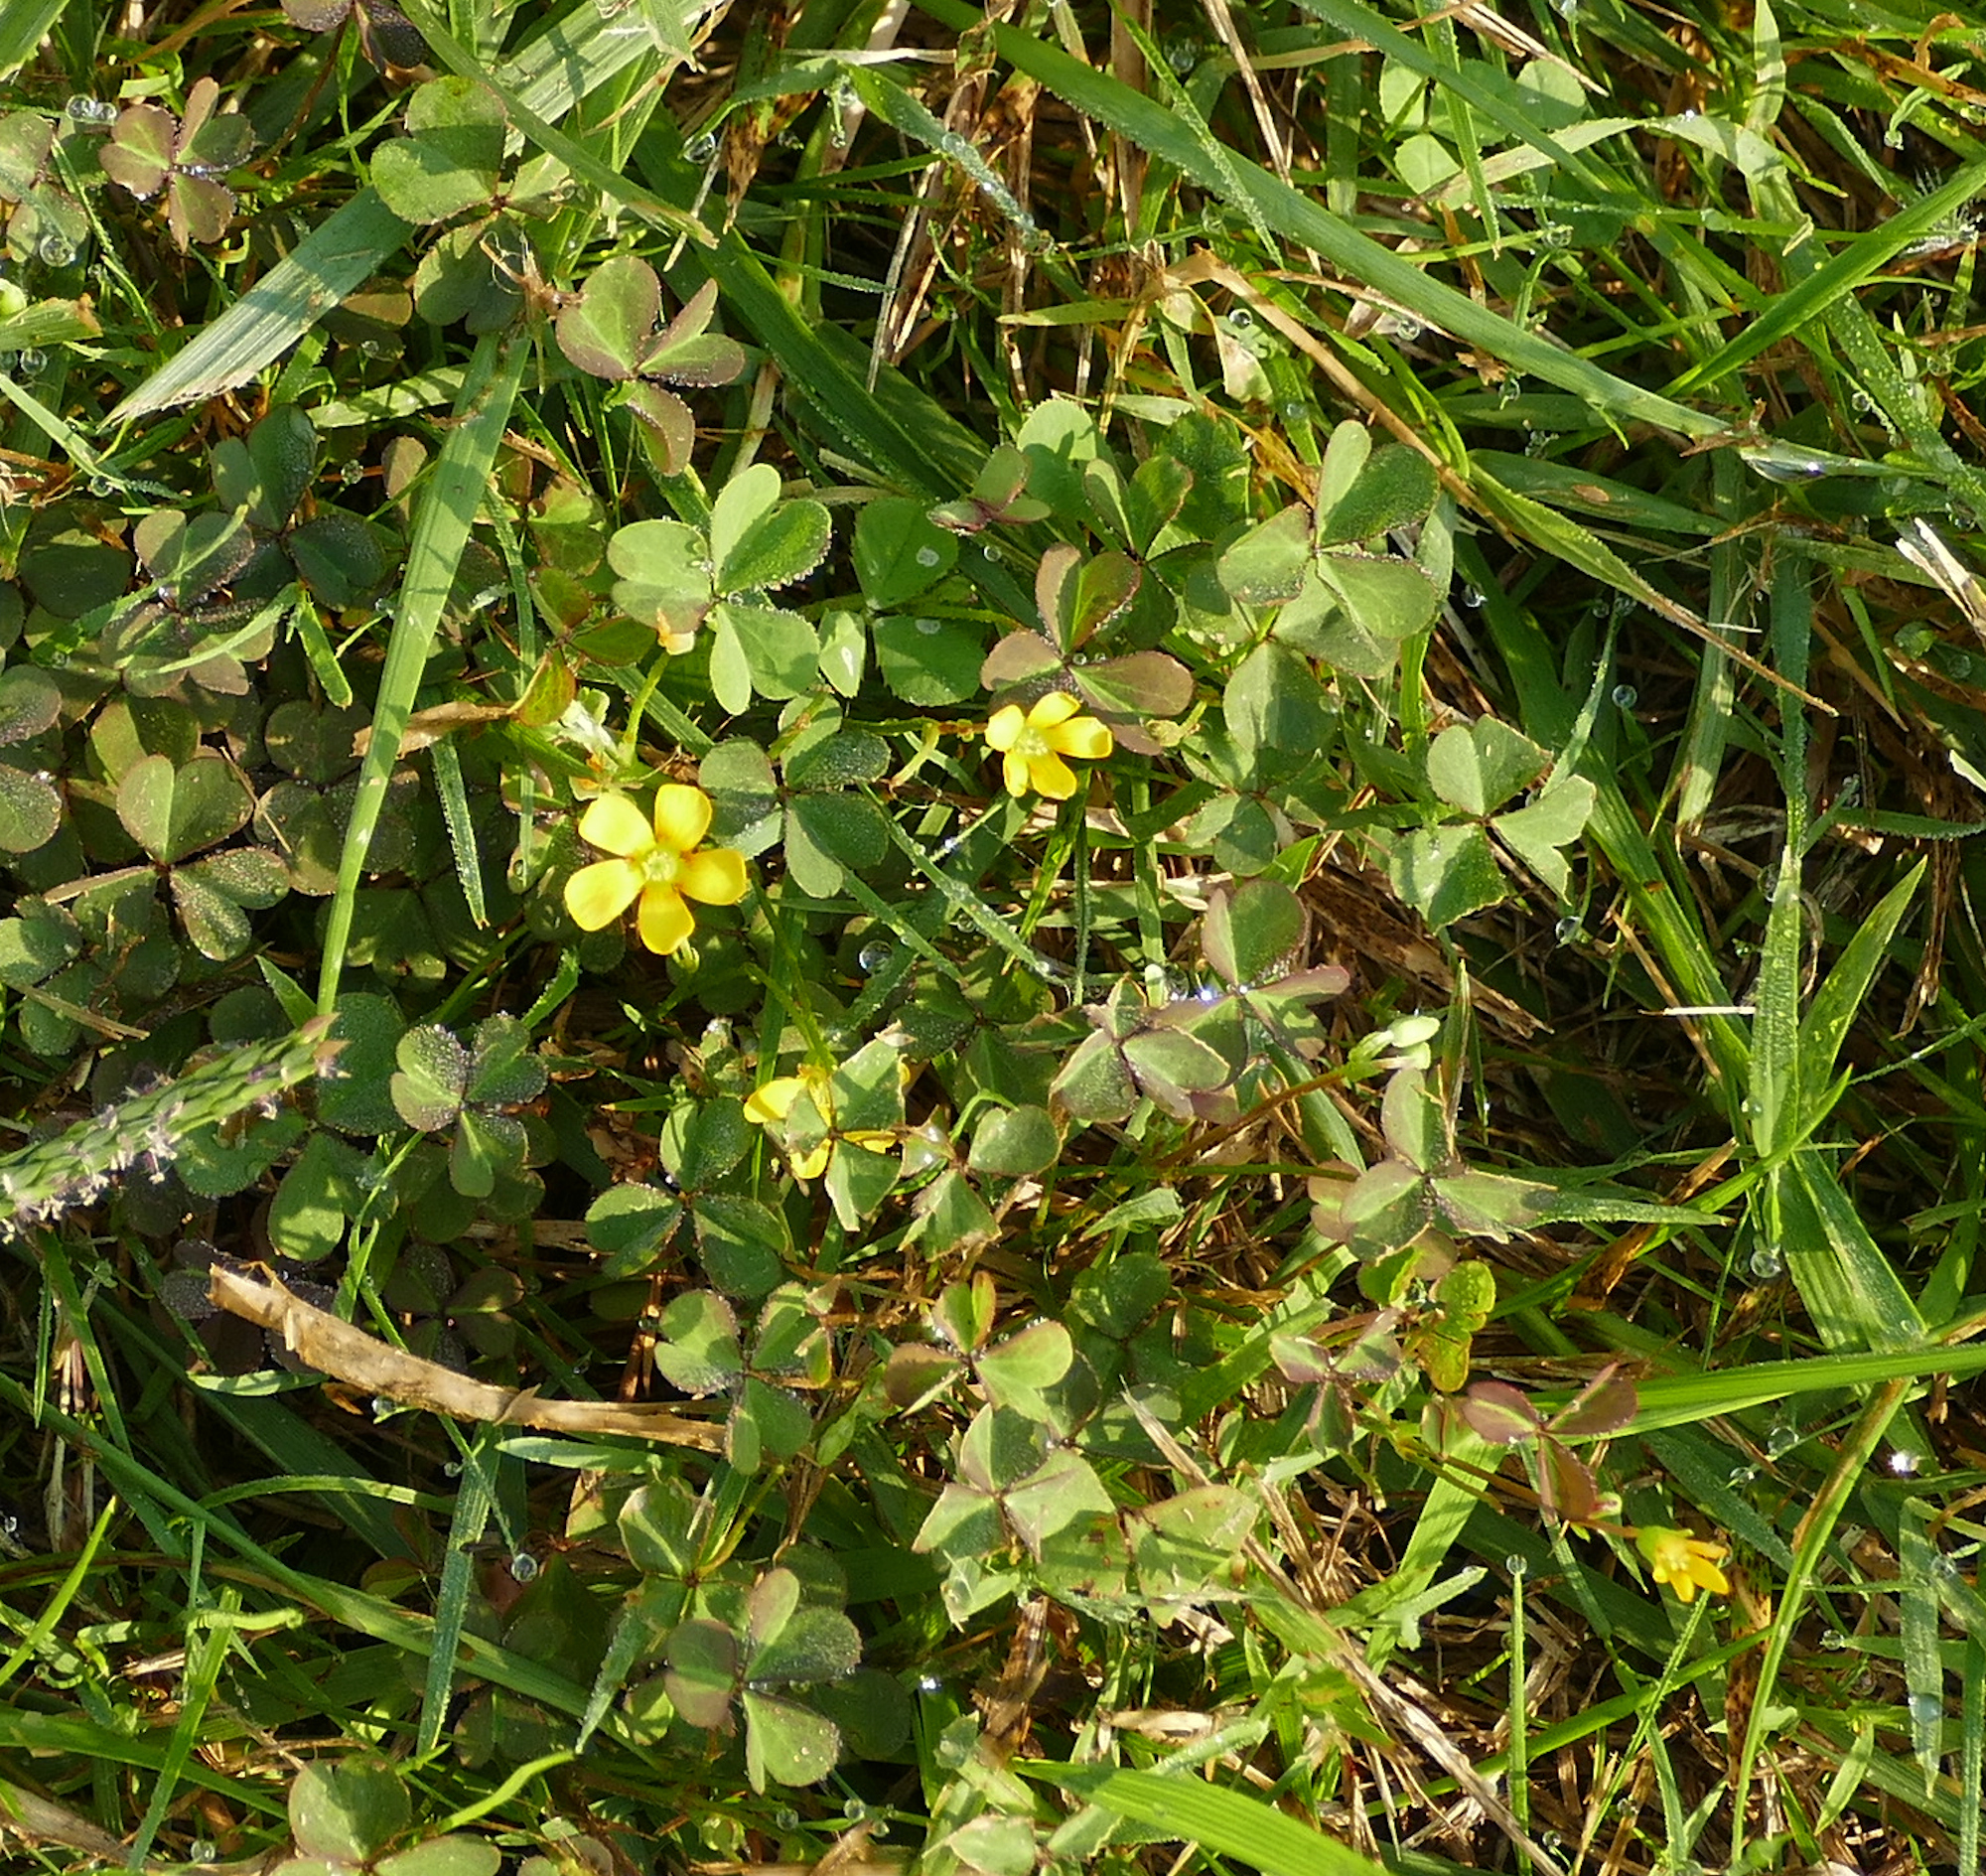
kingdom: Plantae
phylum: Tracheophyta
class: Magnoliopsida
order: Oxalidales
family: Oxalidaceae
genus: Oxalis
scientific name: Oxalis corniculata
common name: Procumbent yellow-sorrel
